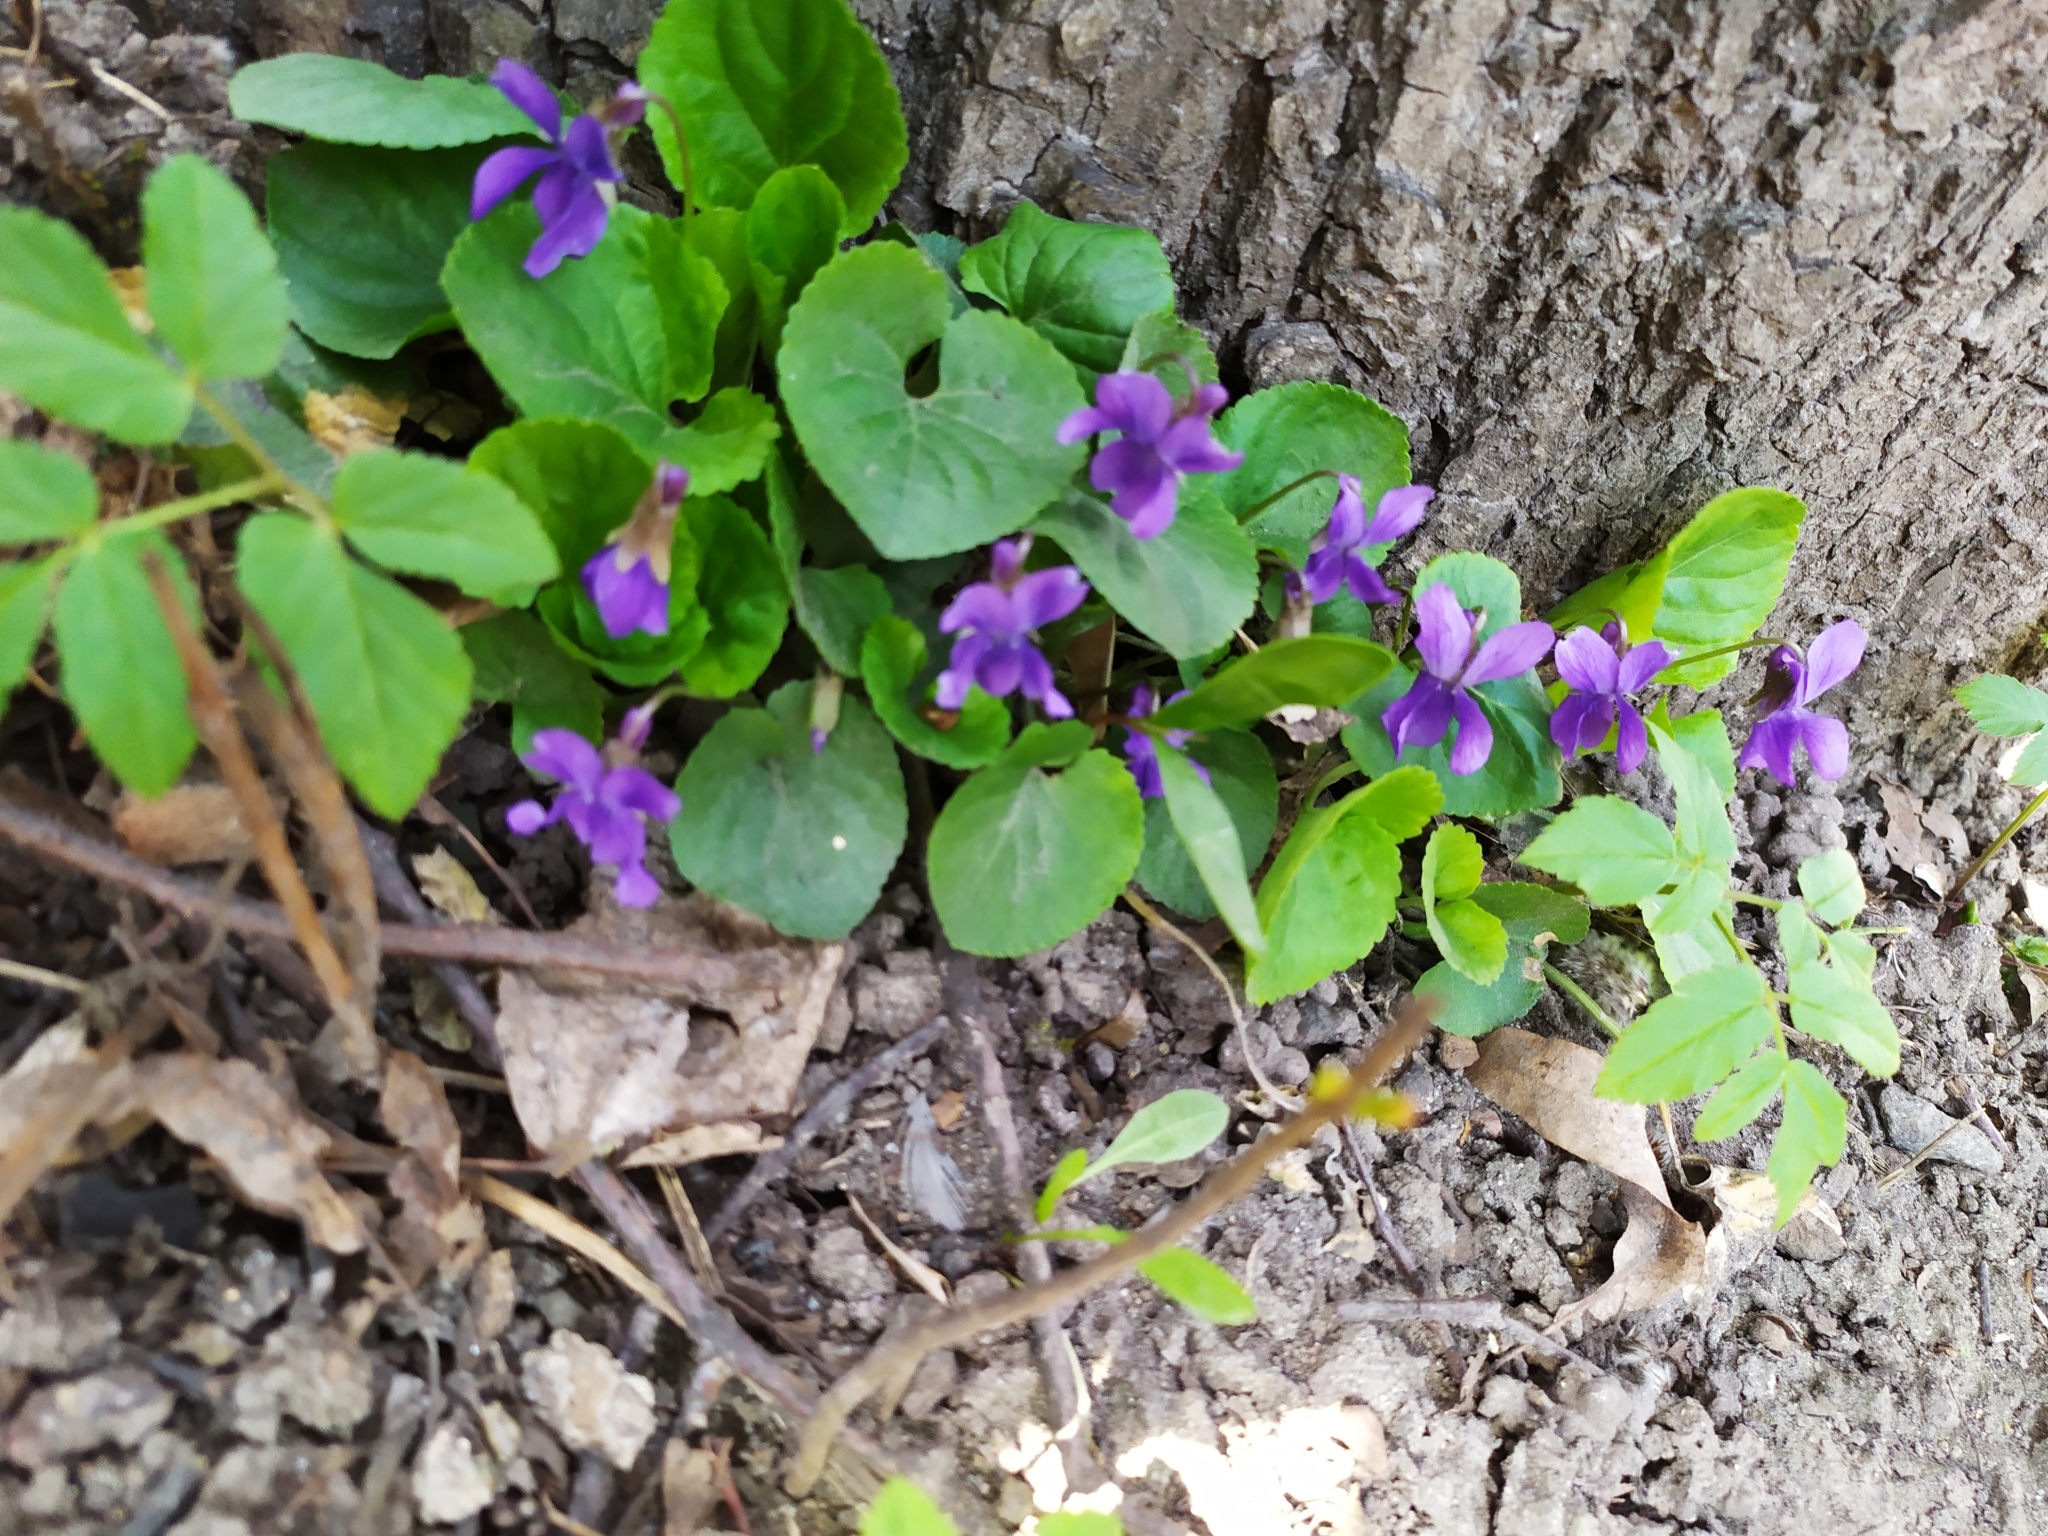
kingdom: Plantae
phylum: Tracheophyta
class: Magnoliopsida
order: Malpighiales
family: Violaceae
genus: Viola
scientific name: Viola odorata
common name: Sweet violet
